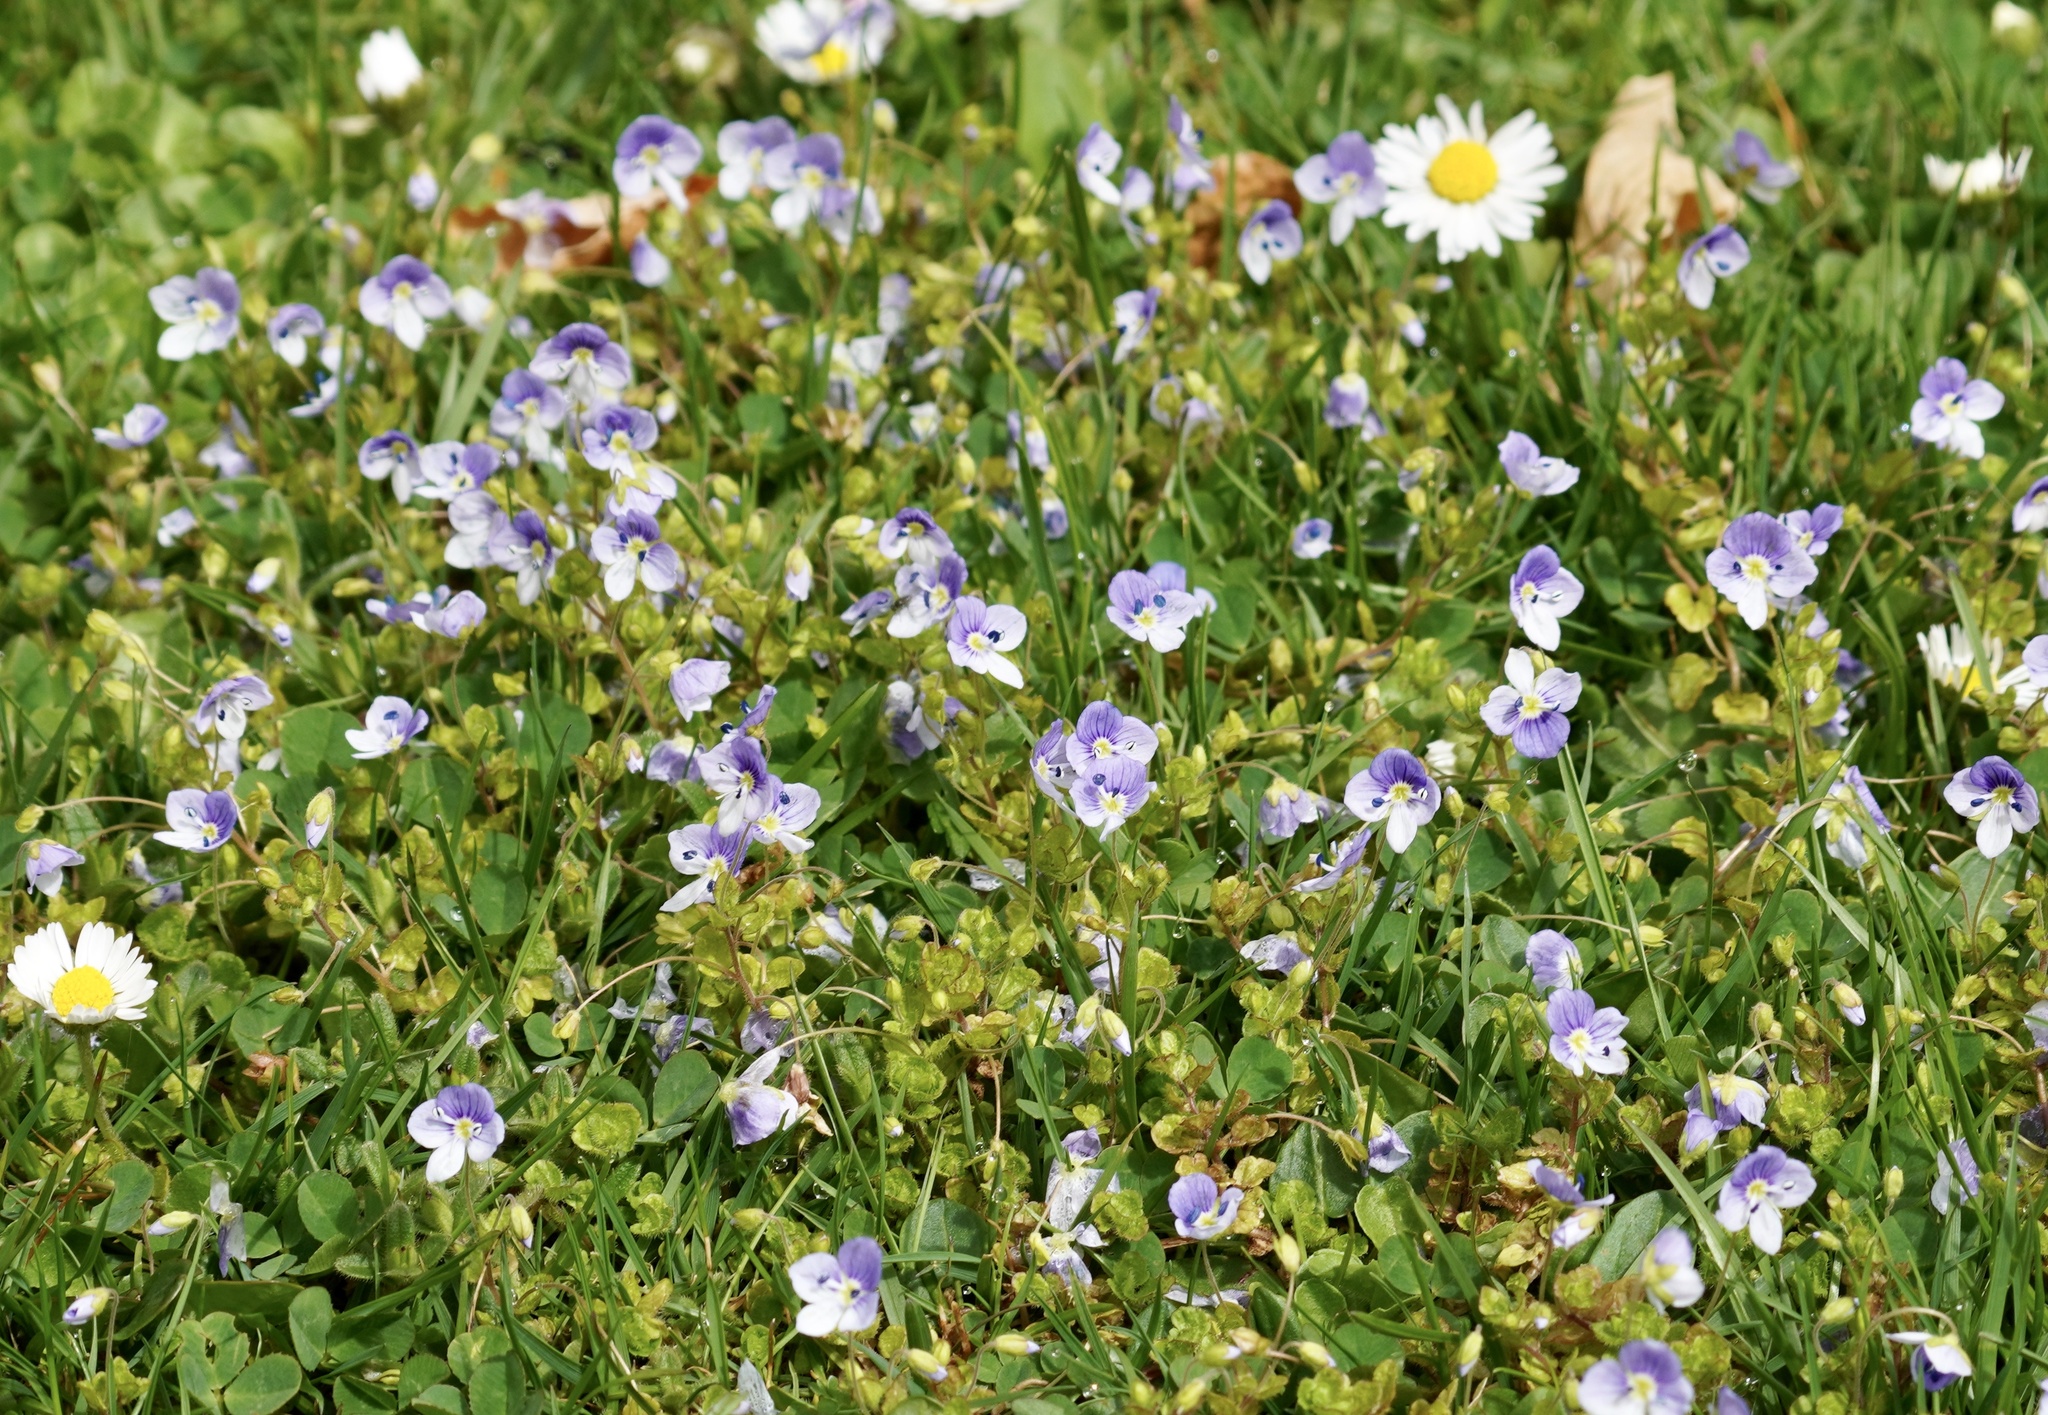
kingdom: Plantae
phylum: Tracheophyta
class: Magnoliopsida
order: Lamiales
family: Plantaginaceae
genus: Veronica
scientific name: Veronica filiformis
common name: Slender speedwell
